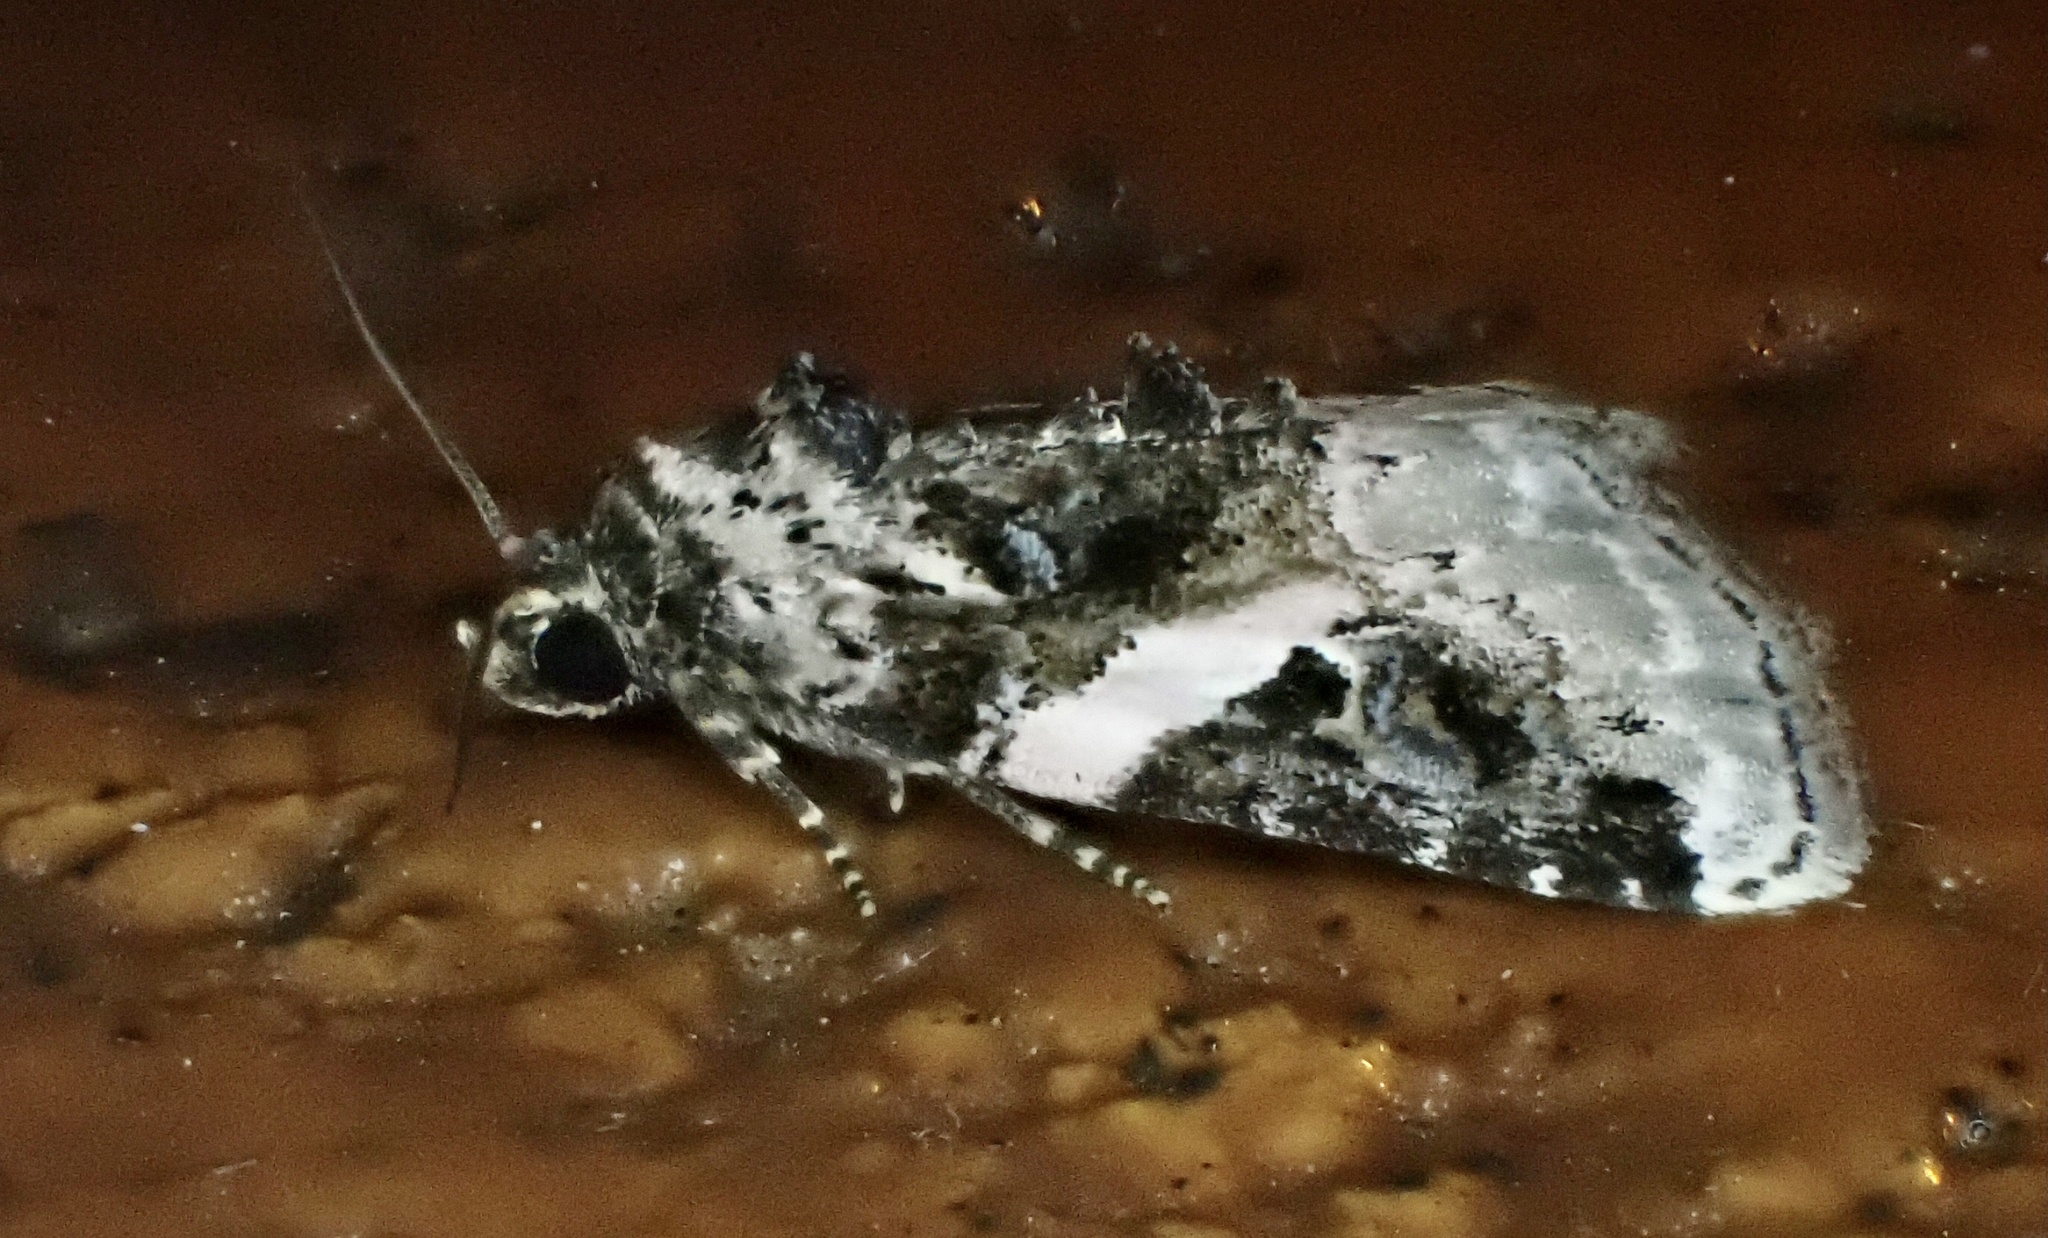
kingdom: Animalia
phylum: Arthropoda
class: Insecta
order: Lepidoptera
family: Noctuidae
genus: Pseudeustrotia
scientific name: Pseudeustrotia carneola
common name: Pink-barred lithacodia moth
